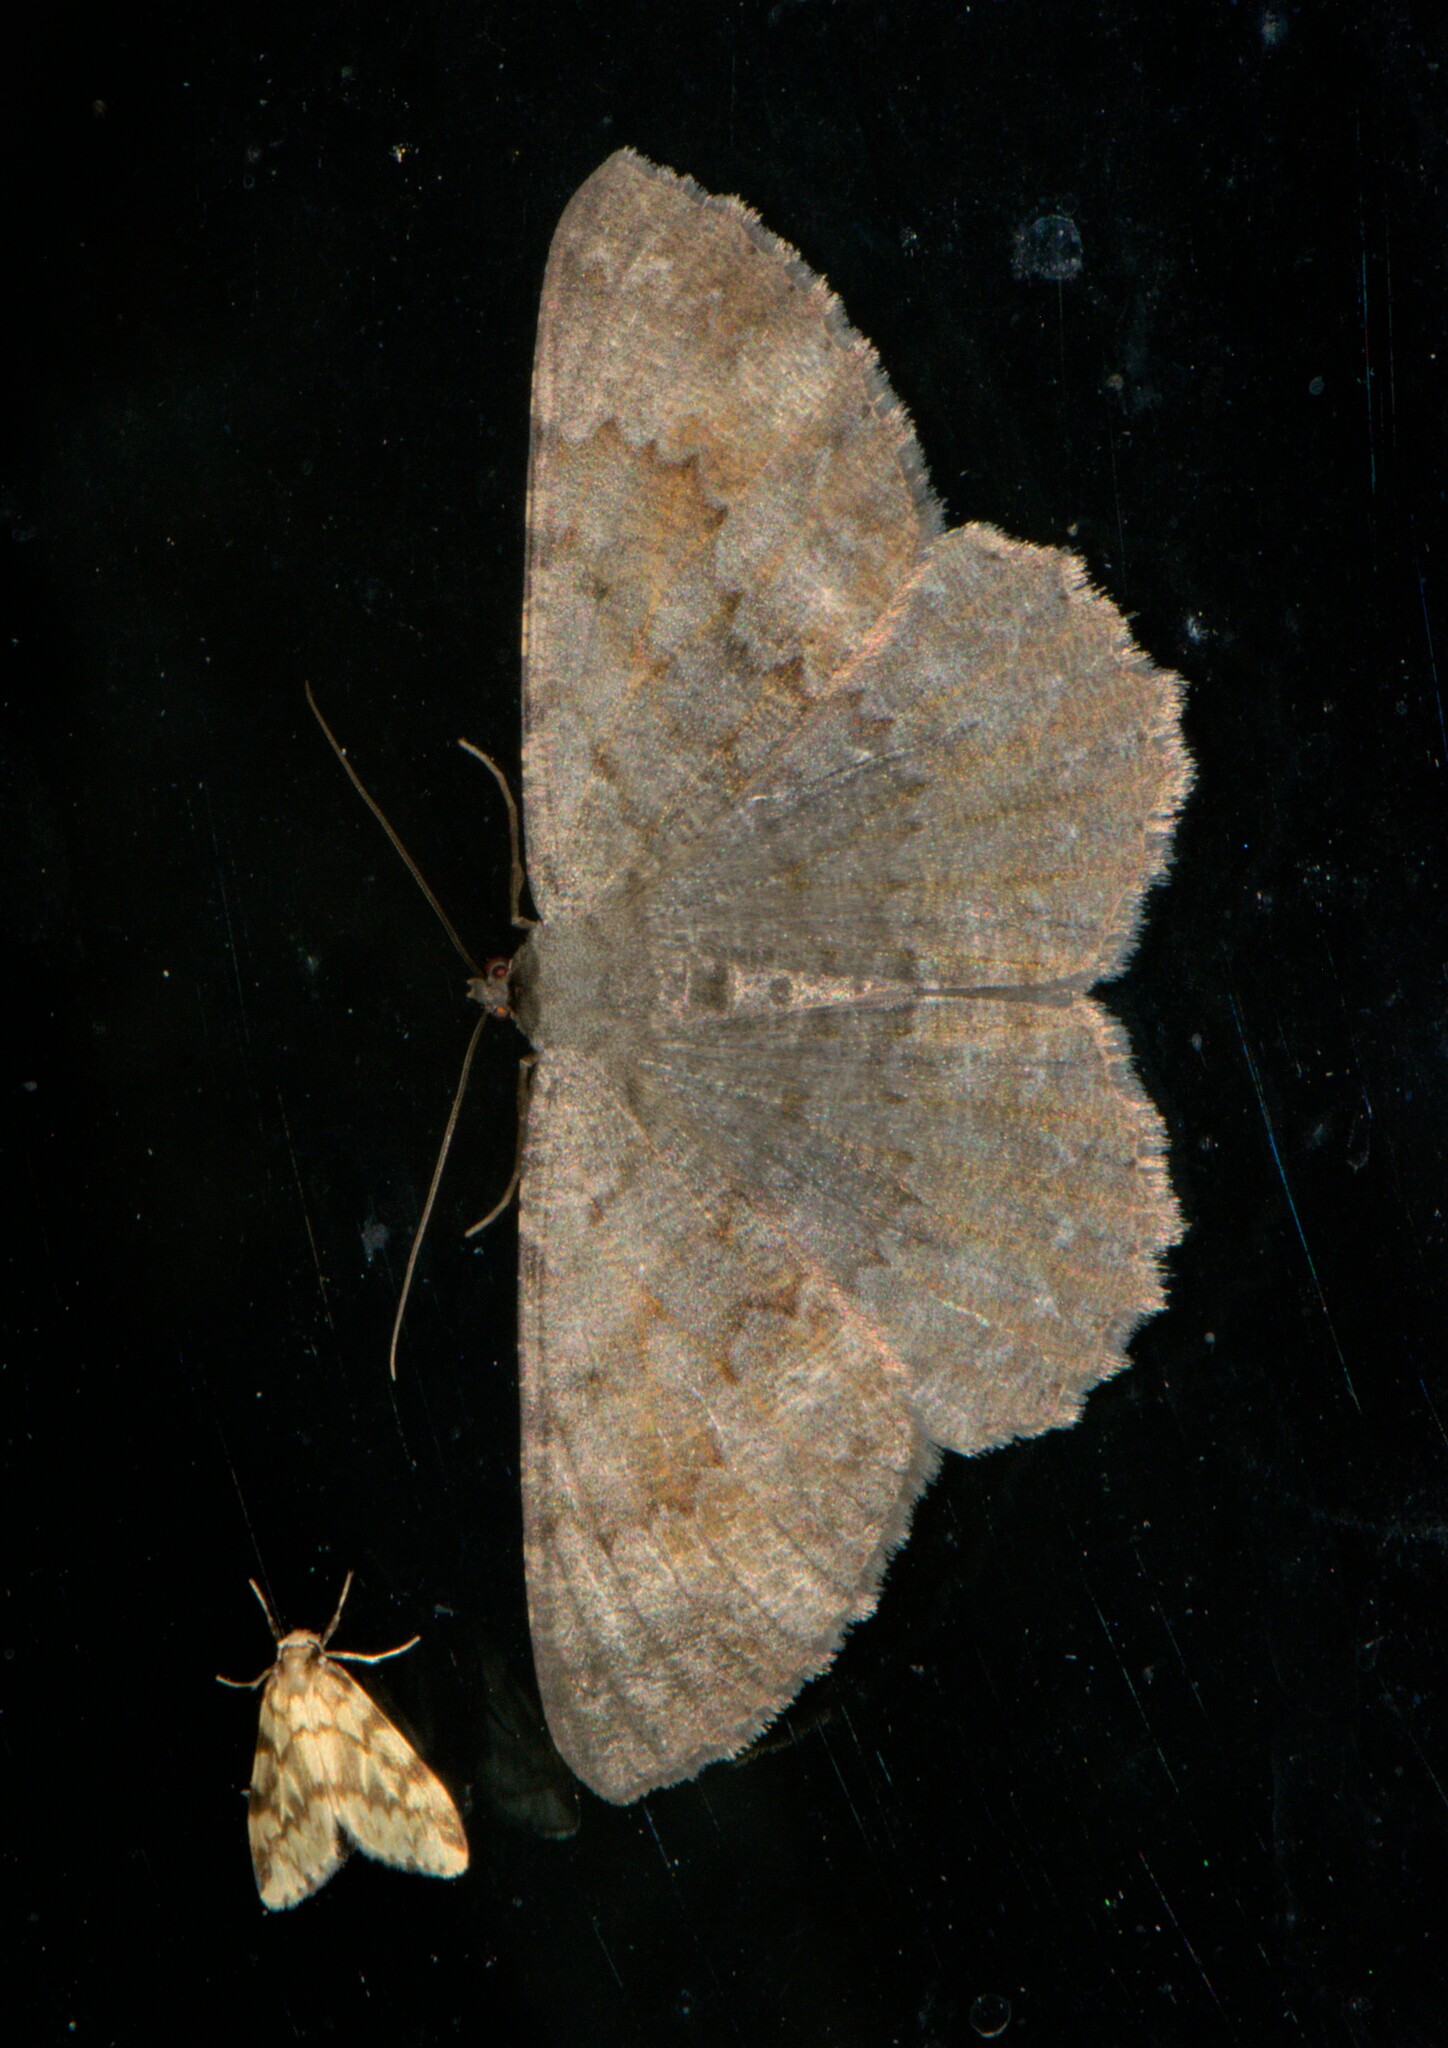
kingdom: Animalia
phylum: Arthropoda
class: Insecta
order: Lepidoptera
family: Erebidae
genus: Nudaria
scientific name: Nudaria margaritacea
